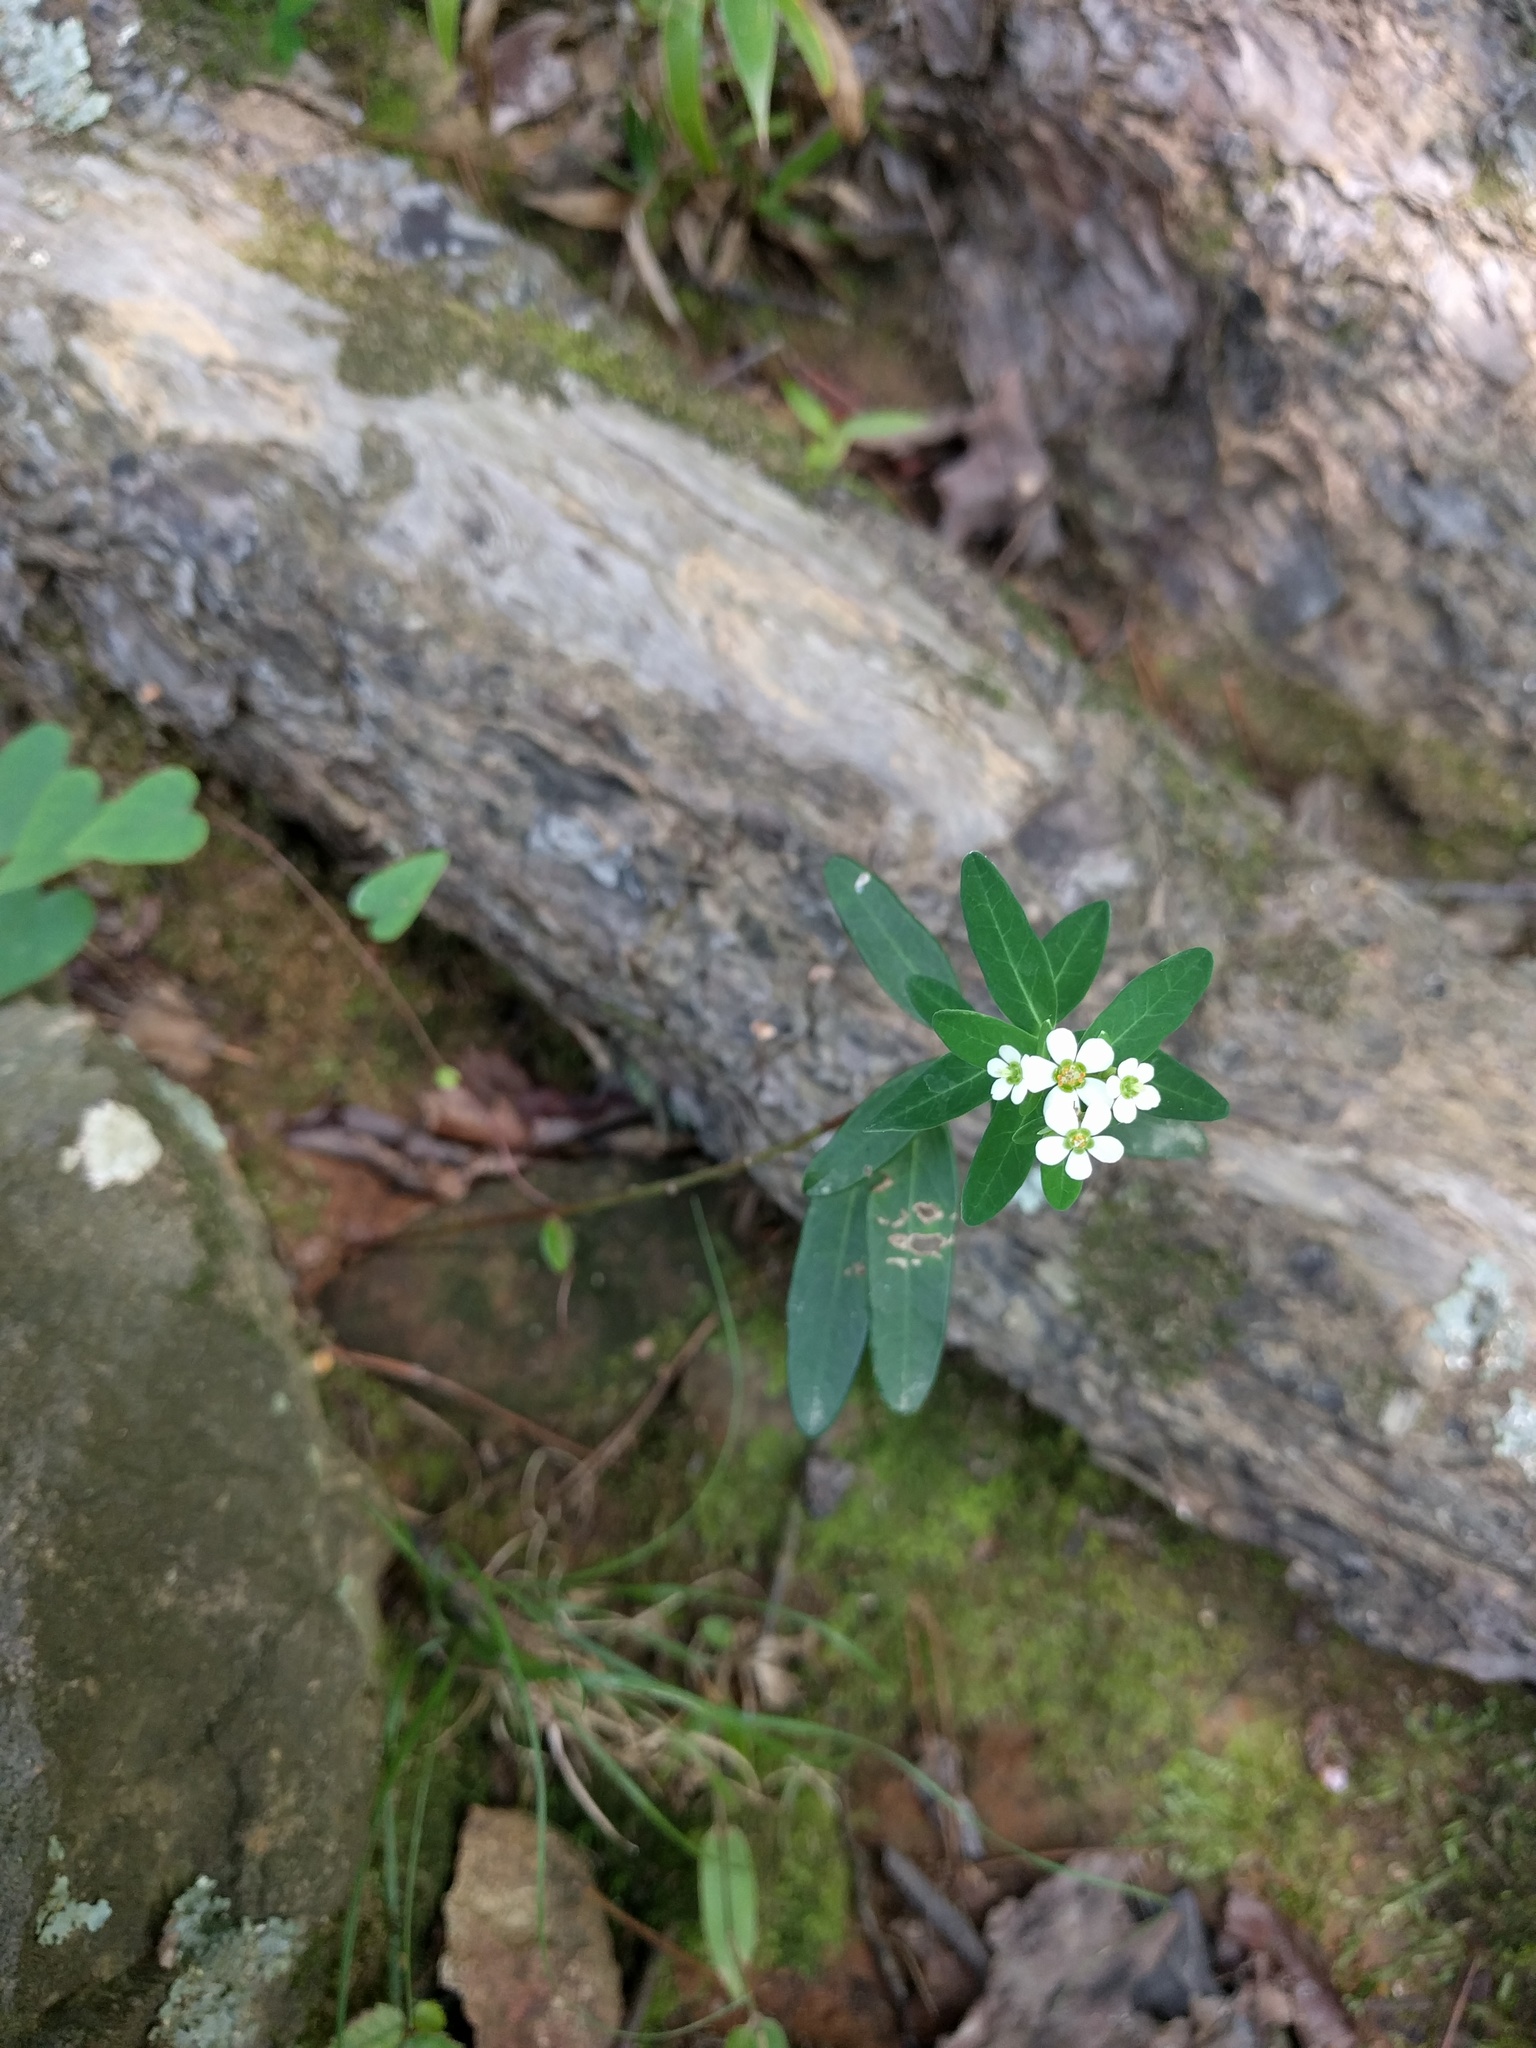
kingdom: Plantae
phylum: Tracheophyta
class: Magnoliopsida
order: Malpighiales
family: Euphorbiaceae
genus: Euphorbia
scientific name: Euphorbia corollata
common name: Flowering spurge
